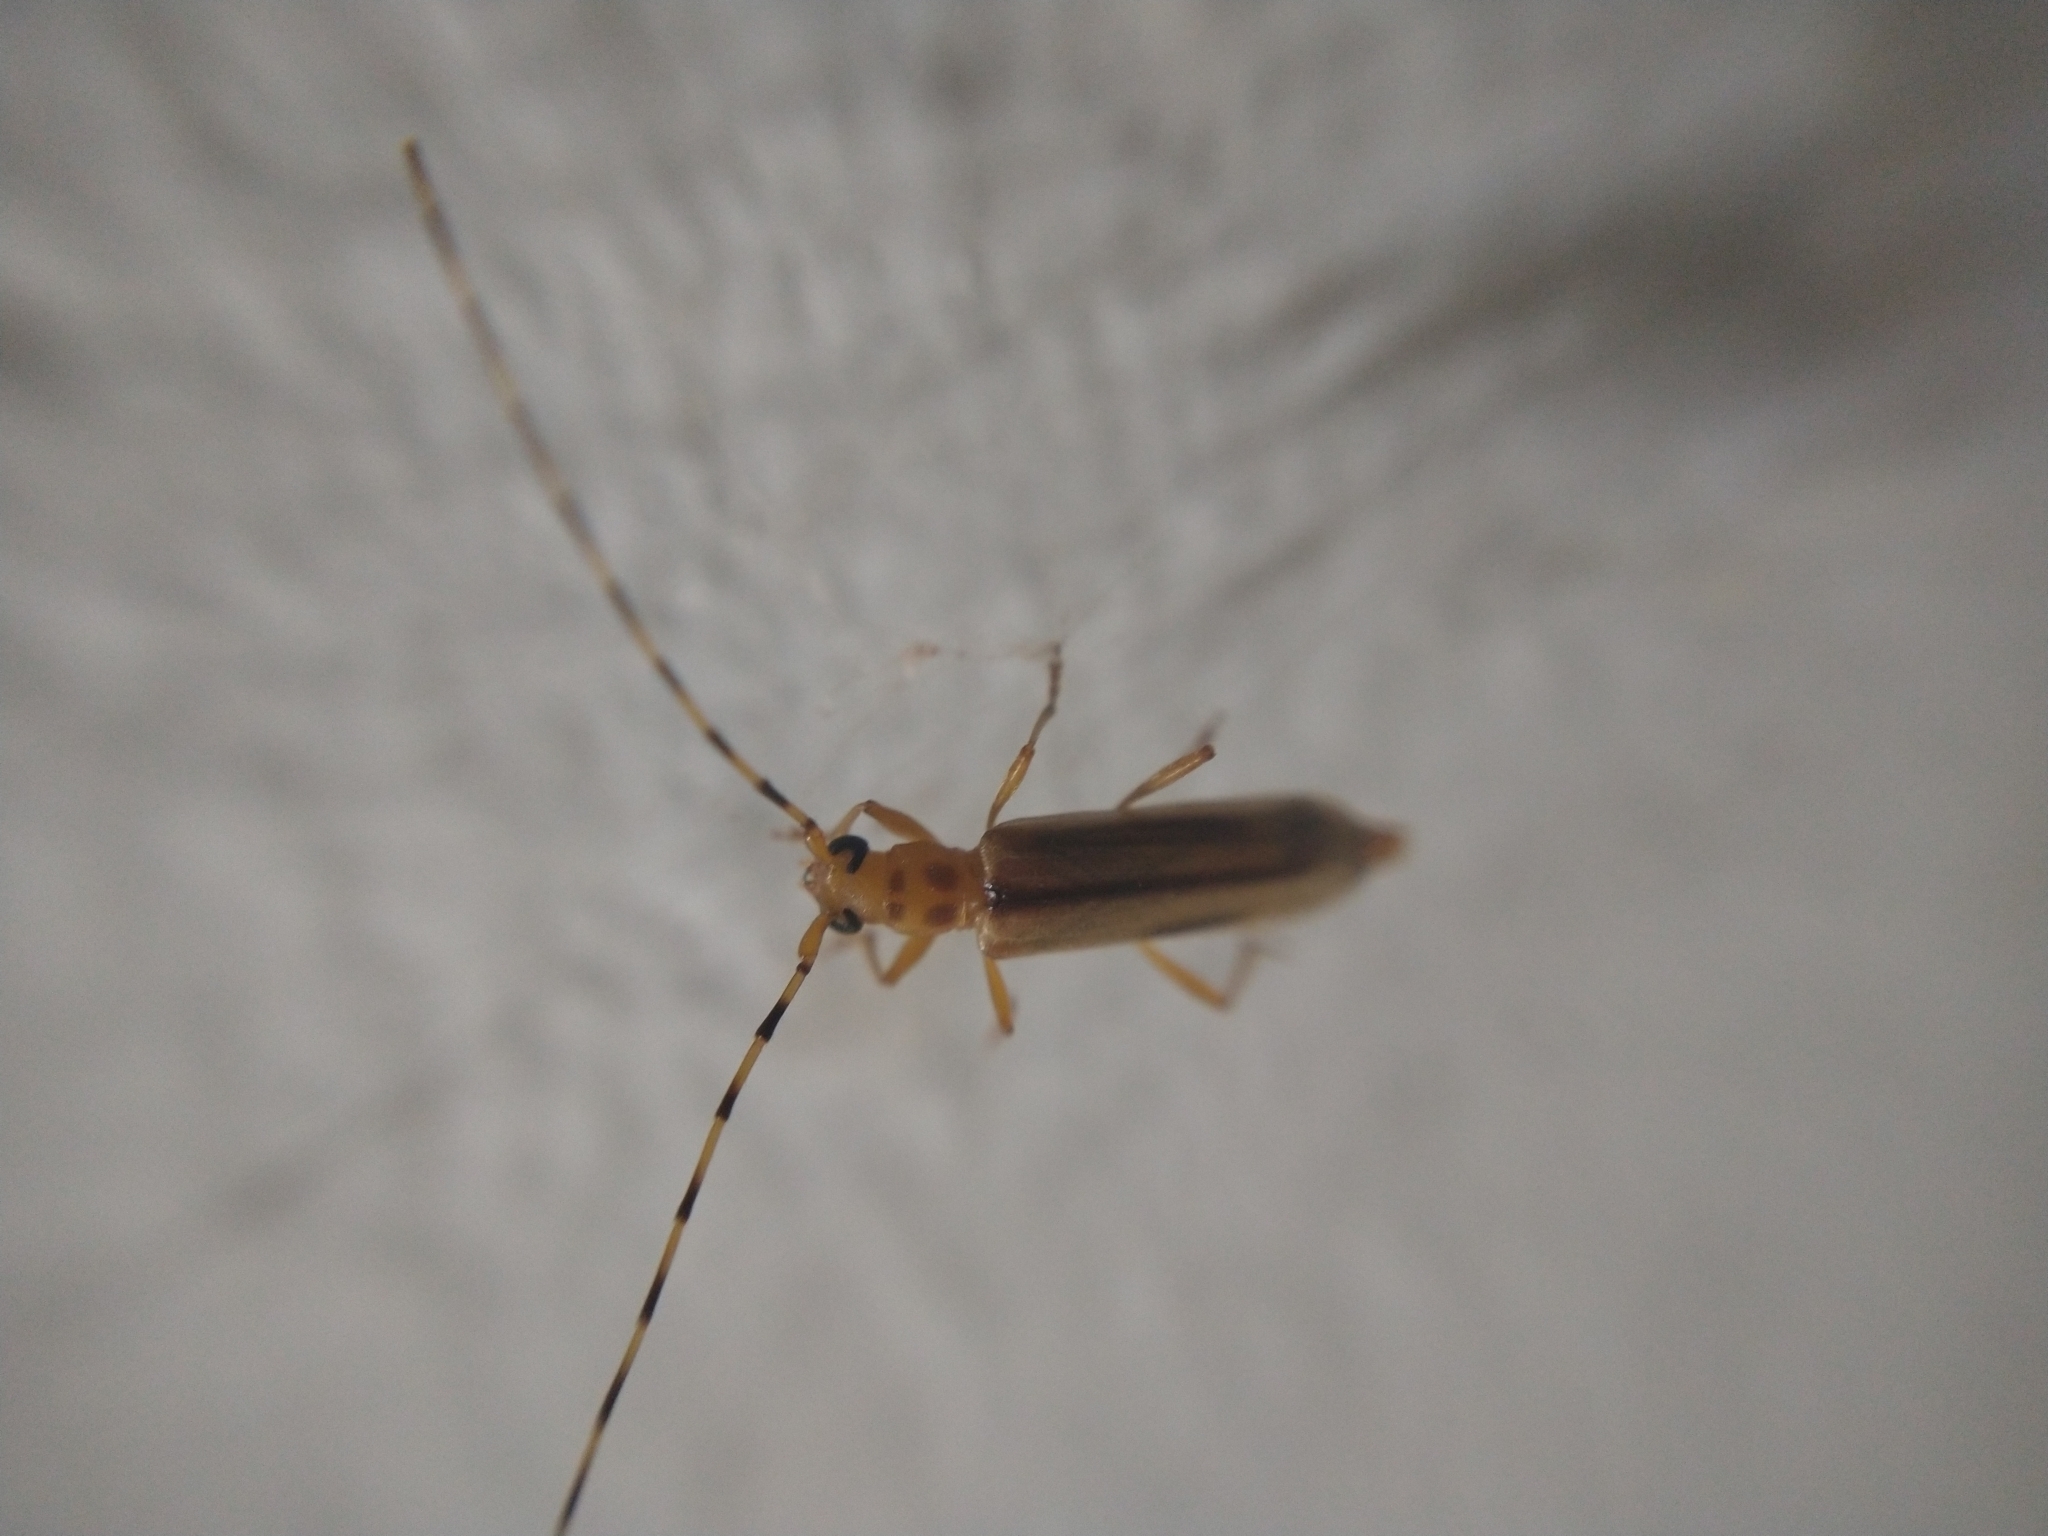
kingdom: Animalia
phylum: Arthropoda
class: Insecta
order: Coleoptera
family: Cerambycidae
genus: Limernaea
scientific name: Limernaea aurivillii
